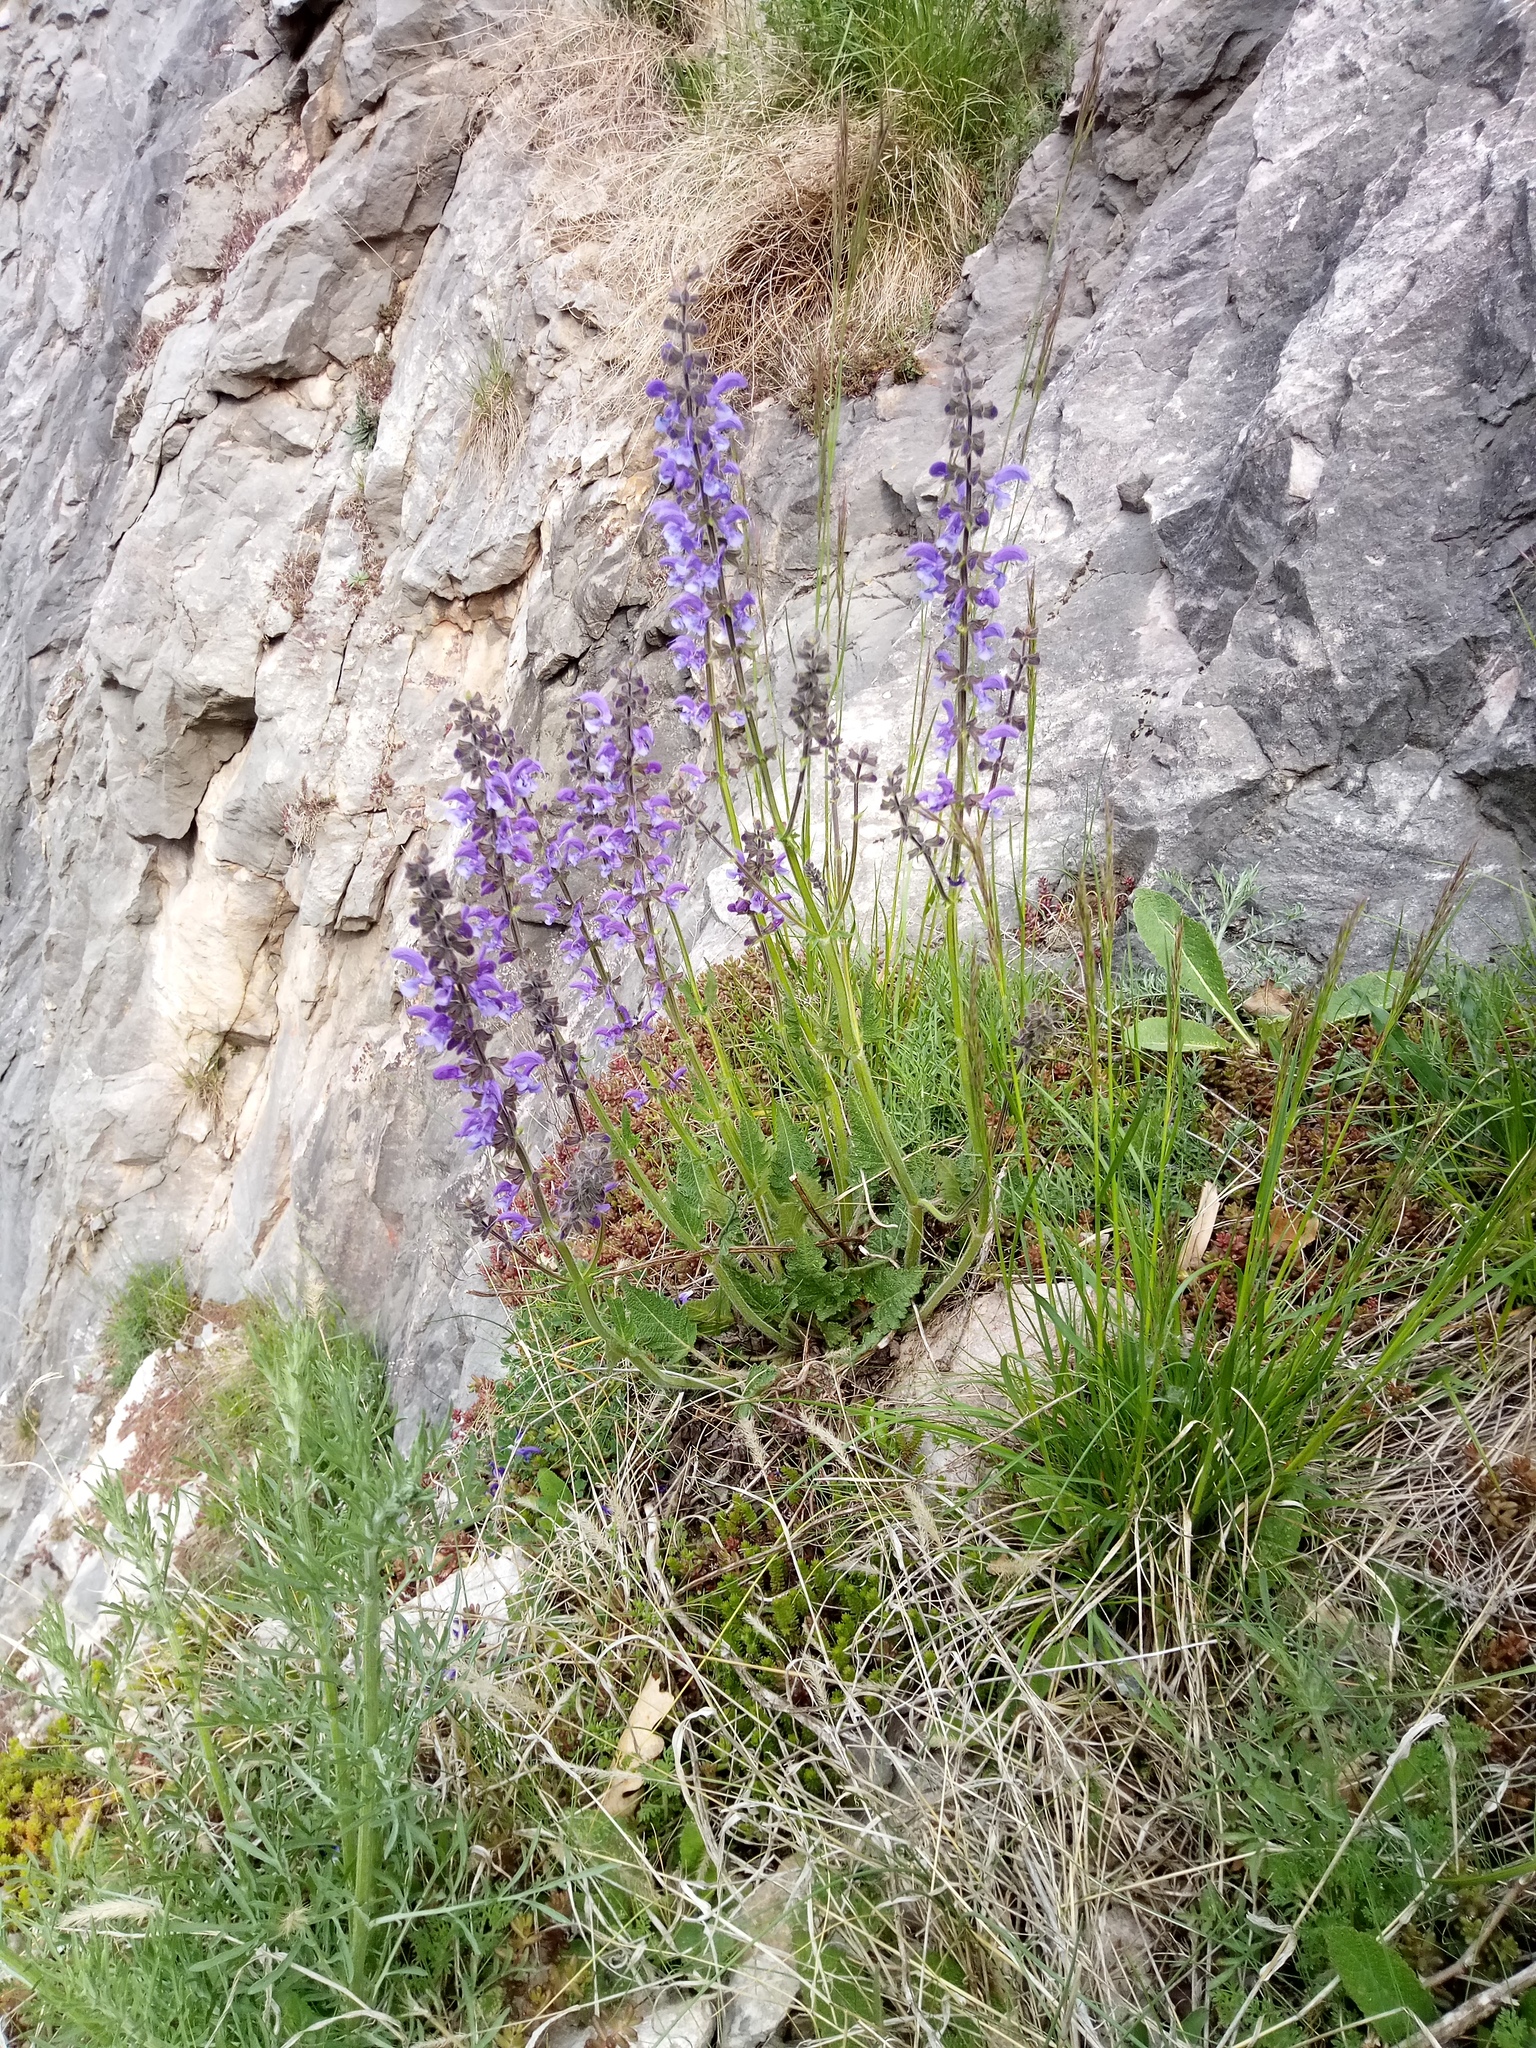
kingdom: Plantae
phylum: Tracheophyta
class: Magnoliopsida
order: Lamiales
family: Lamiaceae
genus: Salvia
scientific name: Salvia pratensis
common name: Meadow sage
